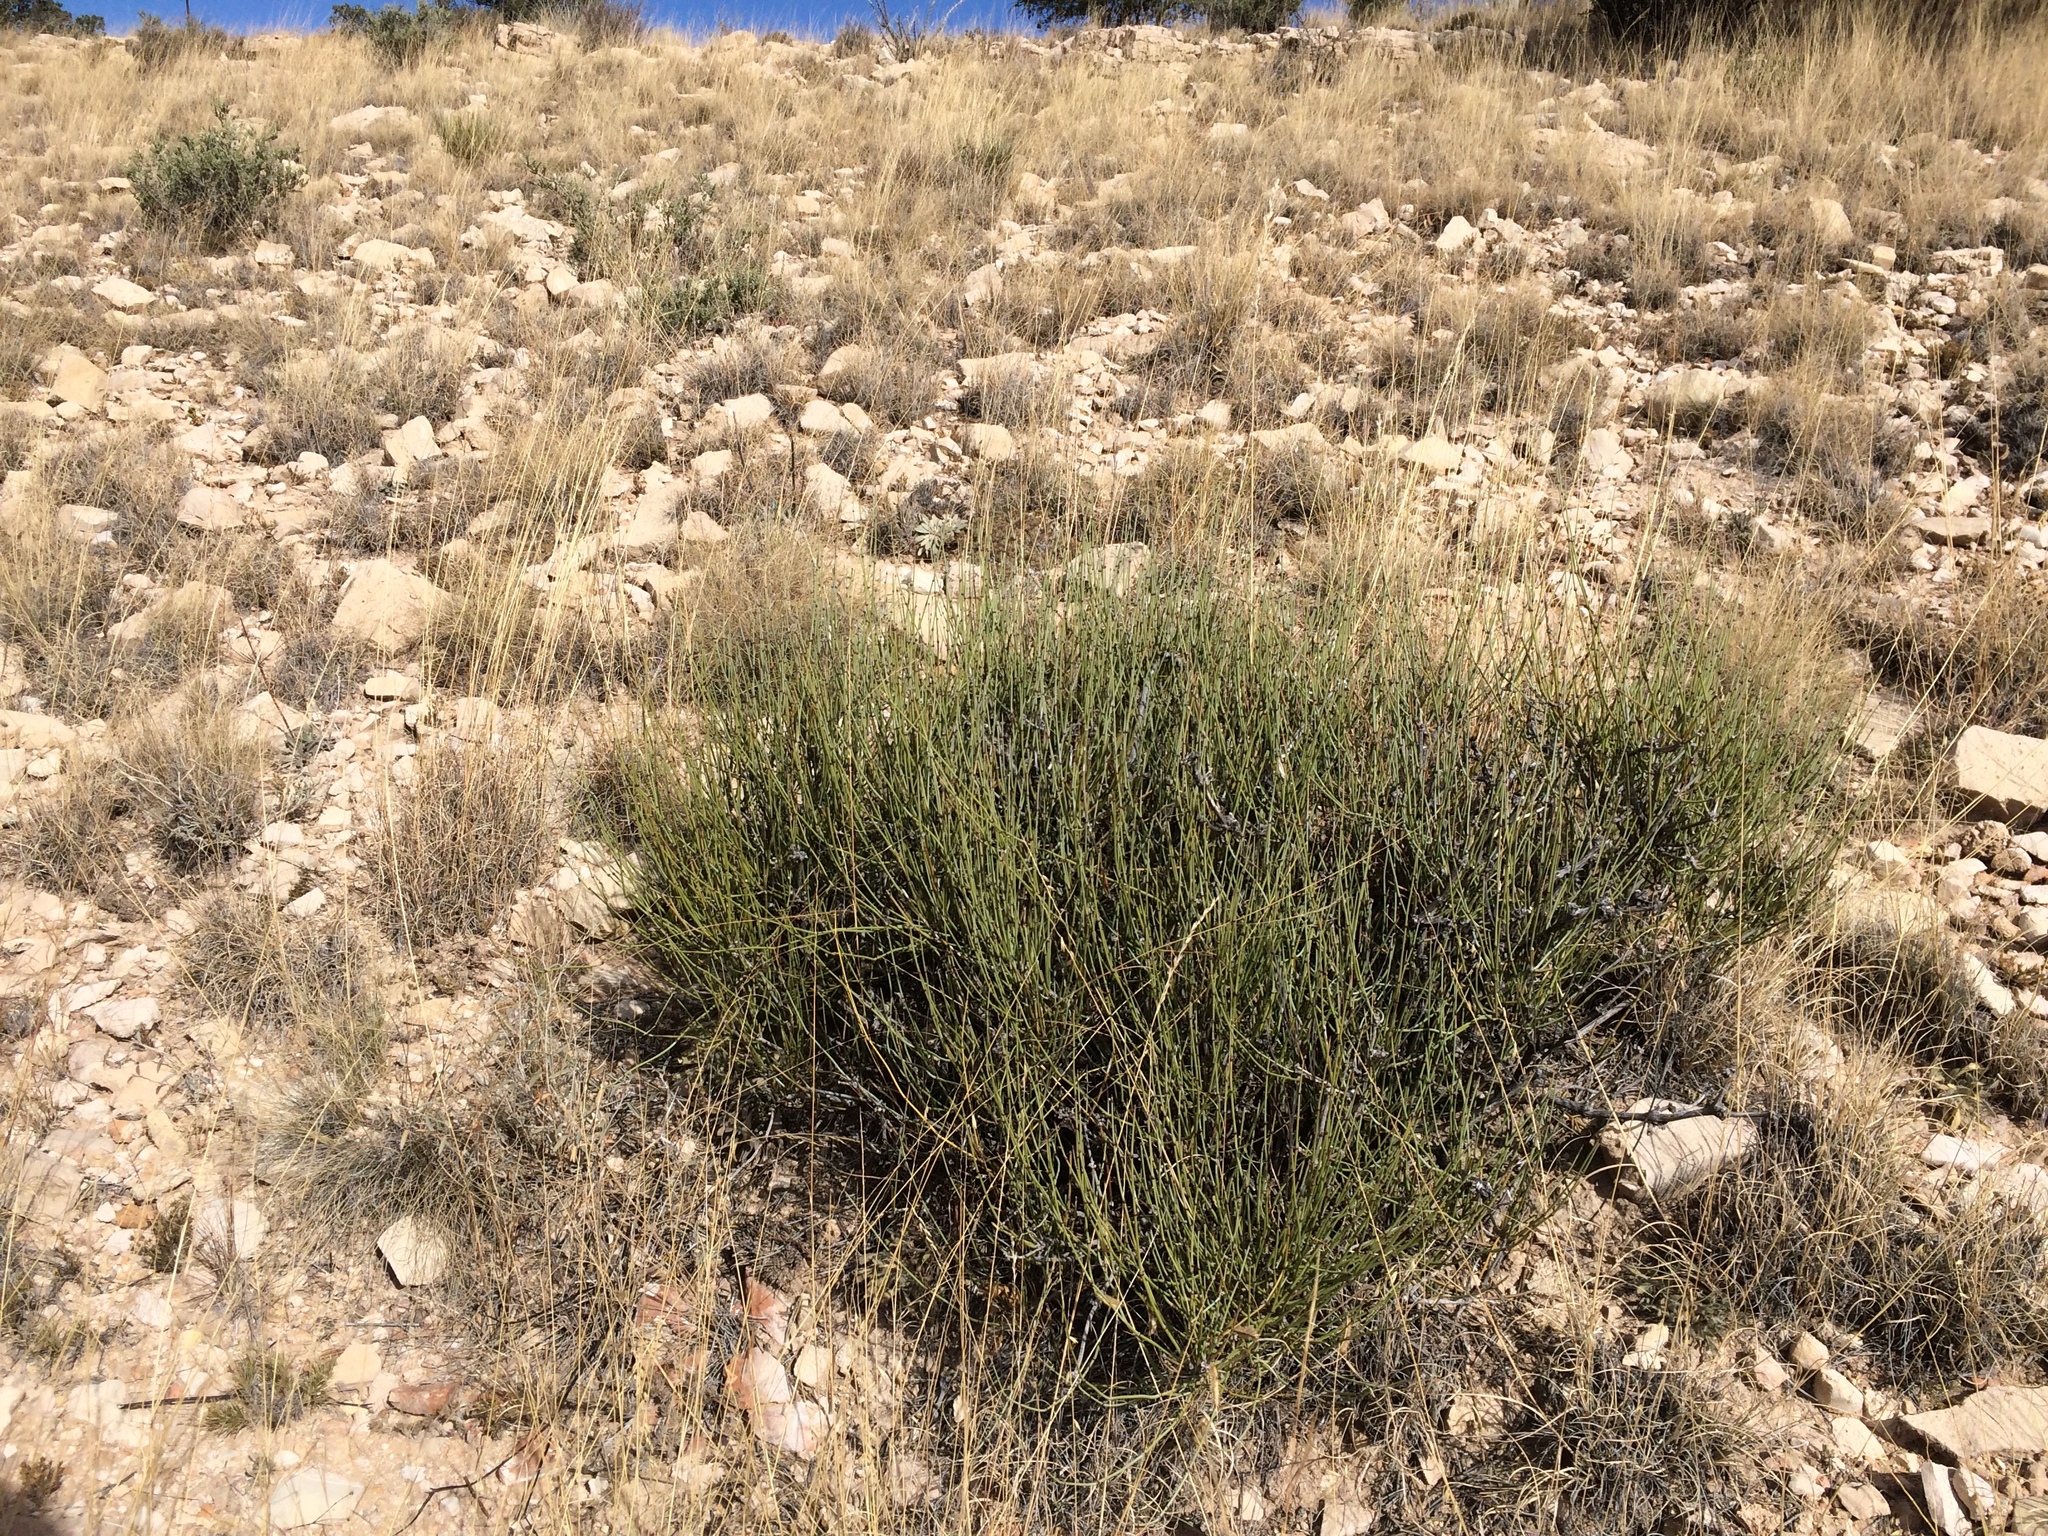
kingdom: Plantae
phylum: Tracheophyta
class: Gnetopsida
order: Ephedrales
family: Ephedraceae
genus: Ephedra
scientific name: Ephedra aspera
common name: Boundary ephedra
